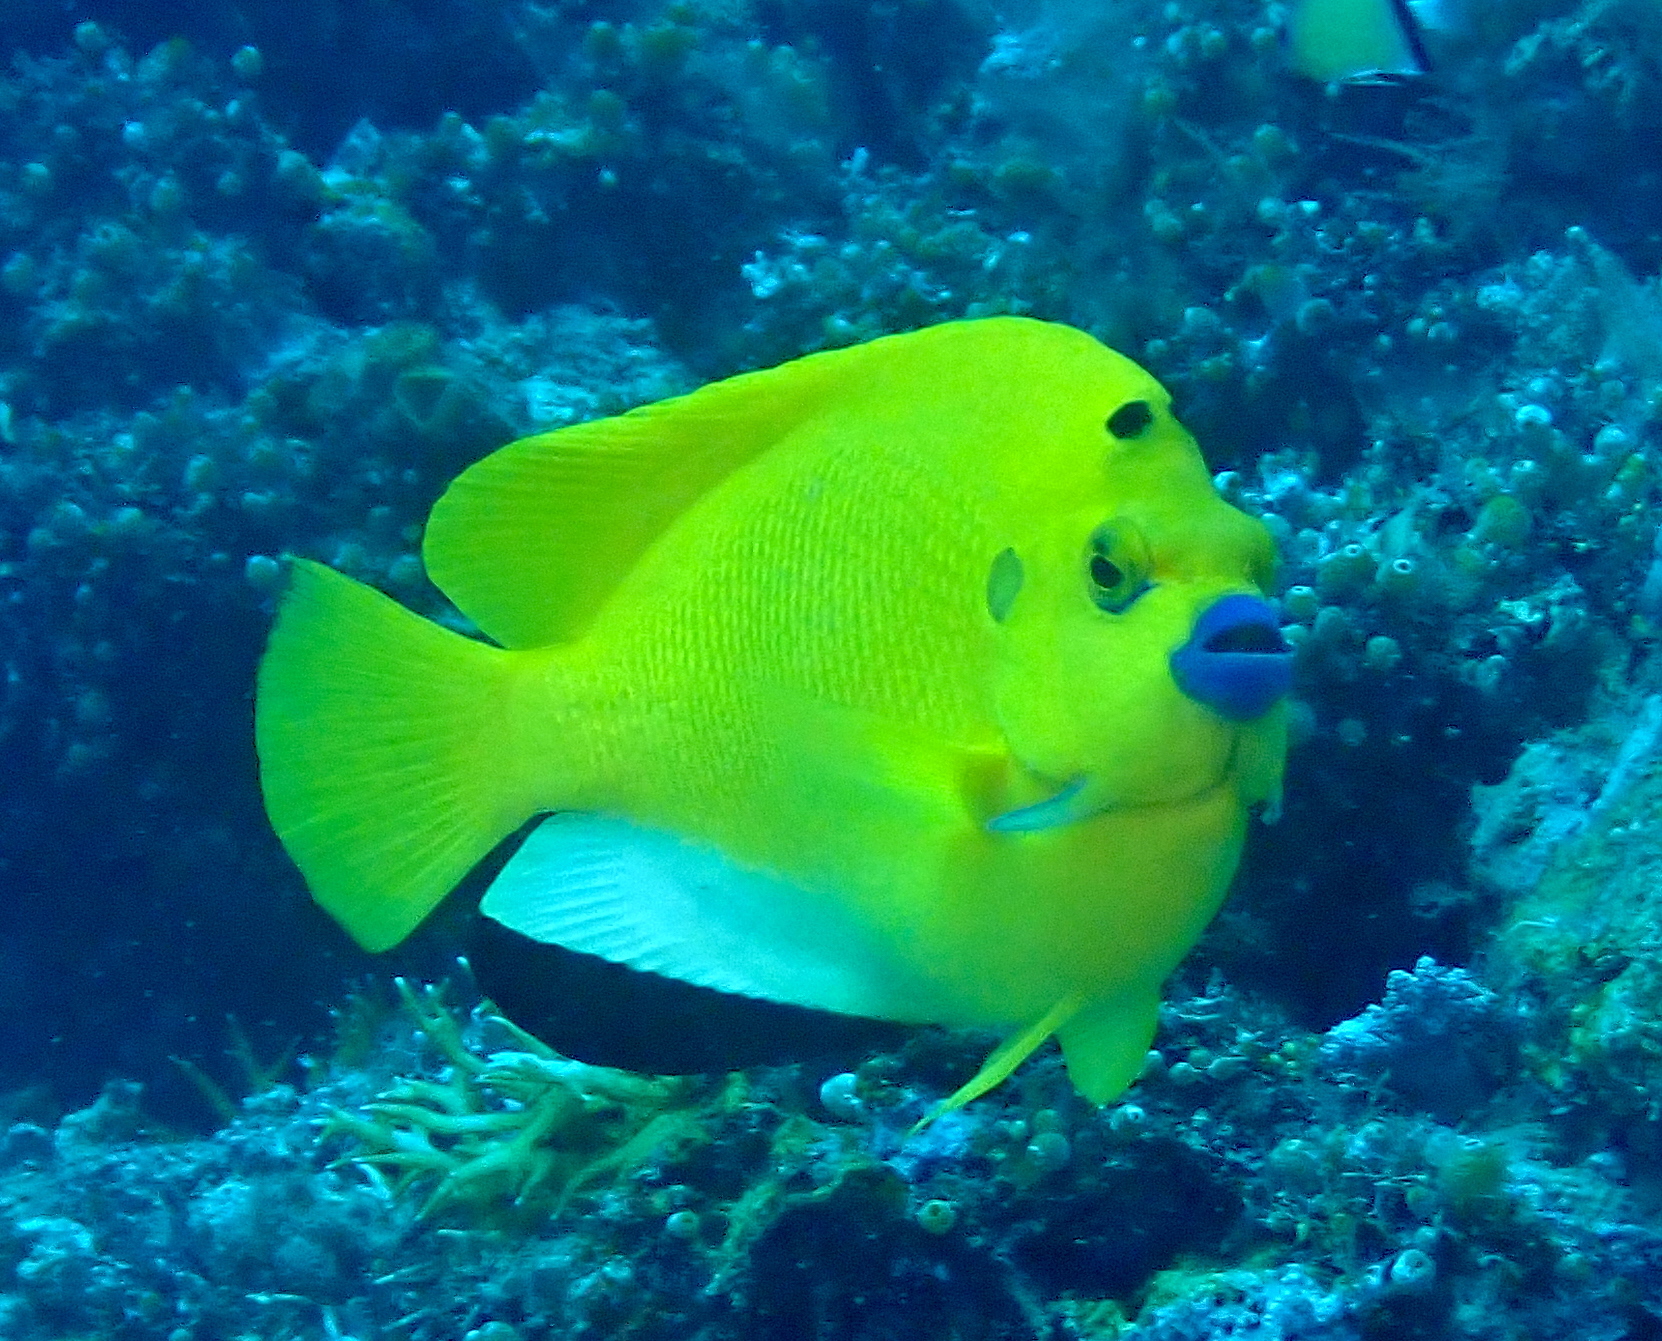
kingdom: Animalia
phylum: Chordata
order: Perciformes
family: Pomacanthidae
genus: Apolemichthys
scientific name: Apolemichthys trimaculatus
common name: Threespot angelfish
